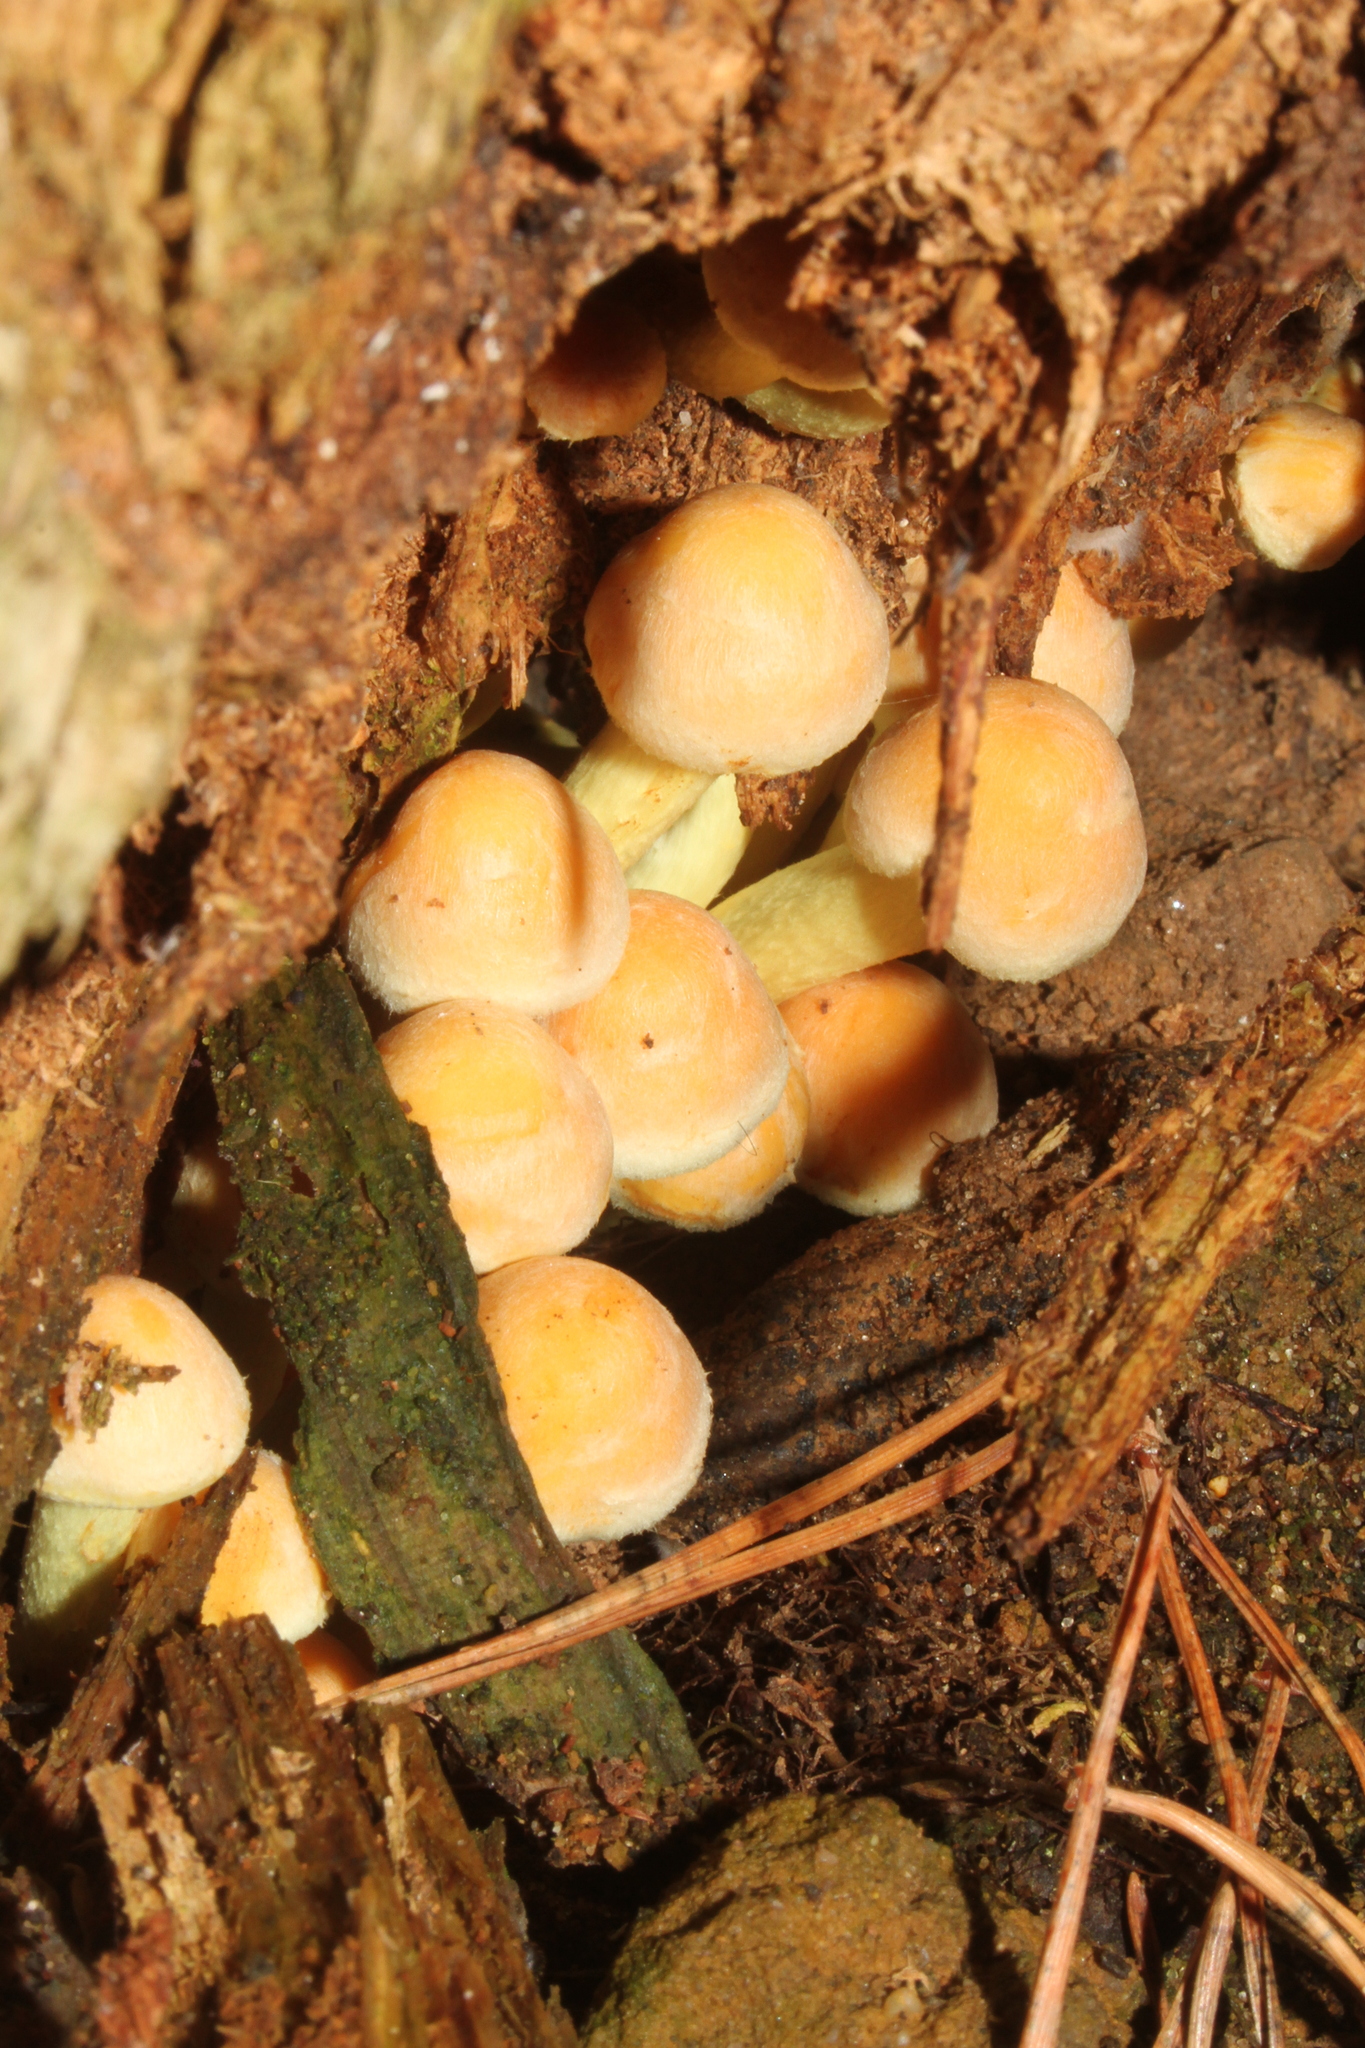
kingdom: Fungi
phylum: Basidiomycota
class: Agaricomycetes
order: Agaricales
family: Strophariaceae
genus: Hypholoma
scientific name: Hypholoma fasciculare
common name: Sulphur tuft
